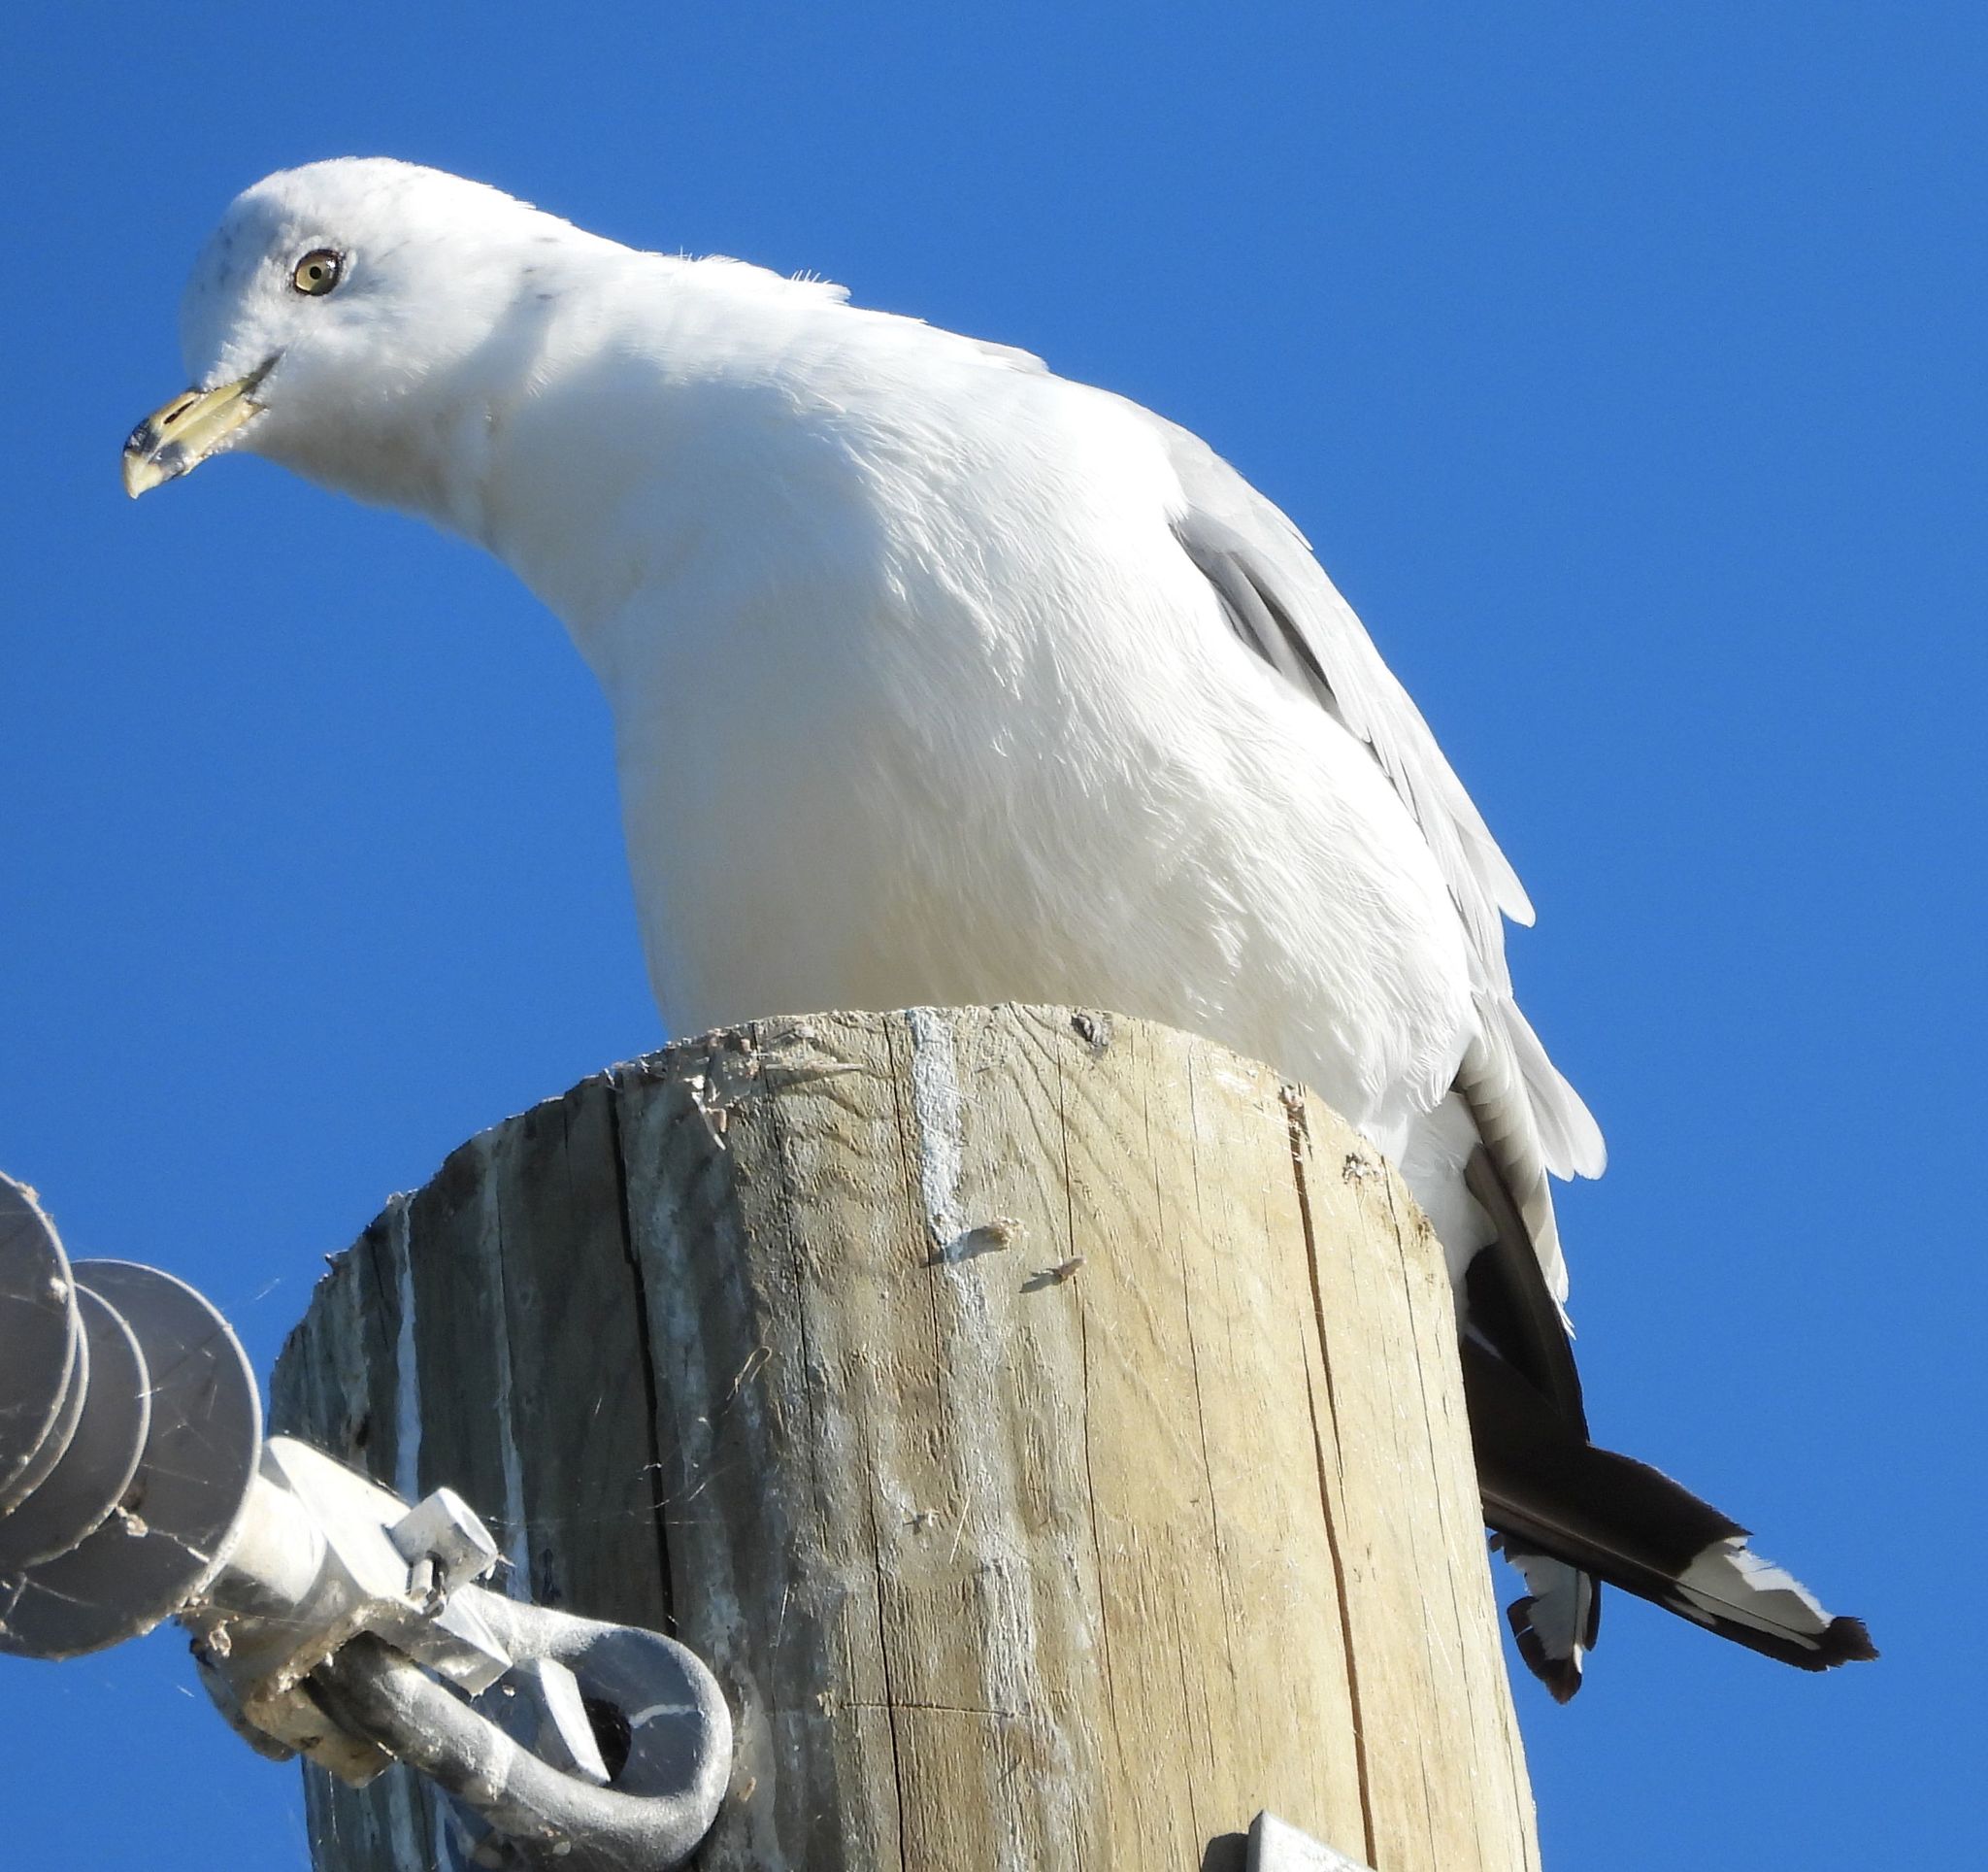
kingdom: Animalia
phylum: Chordata
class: Aves
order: Charadriiformes
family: Laridae
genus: Larus
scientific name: Larus delawarensis
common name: Ring-billed gull
